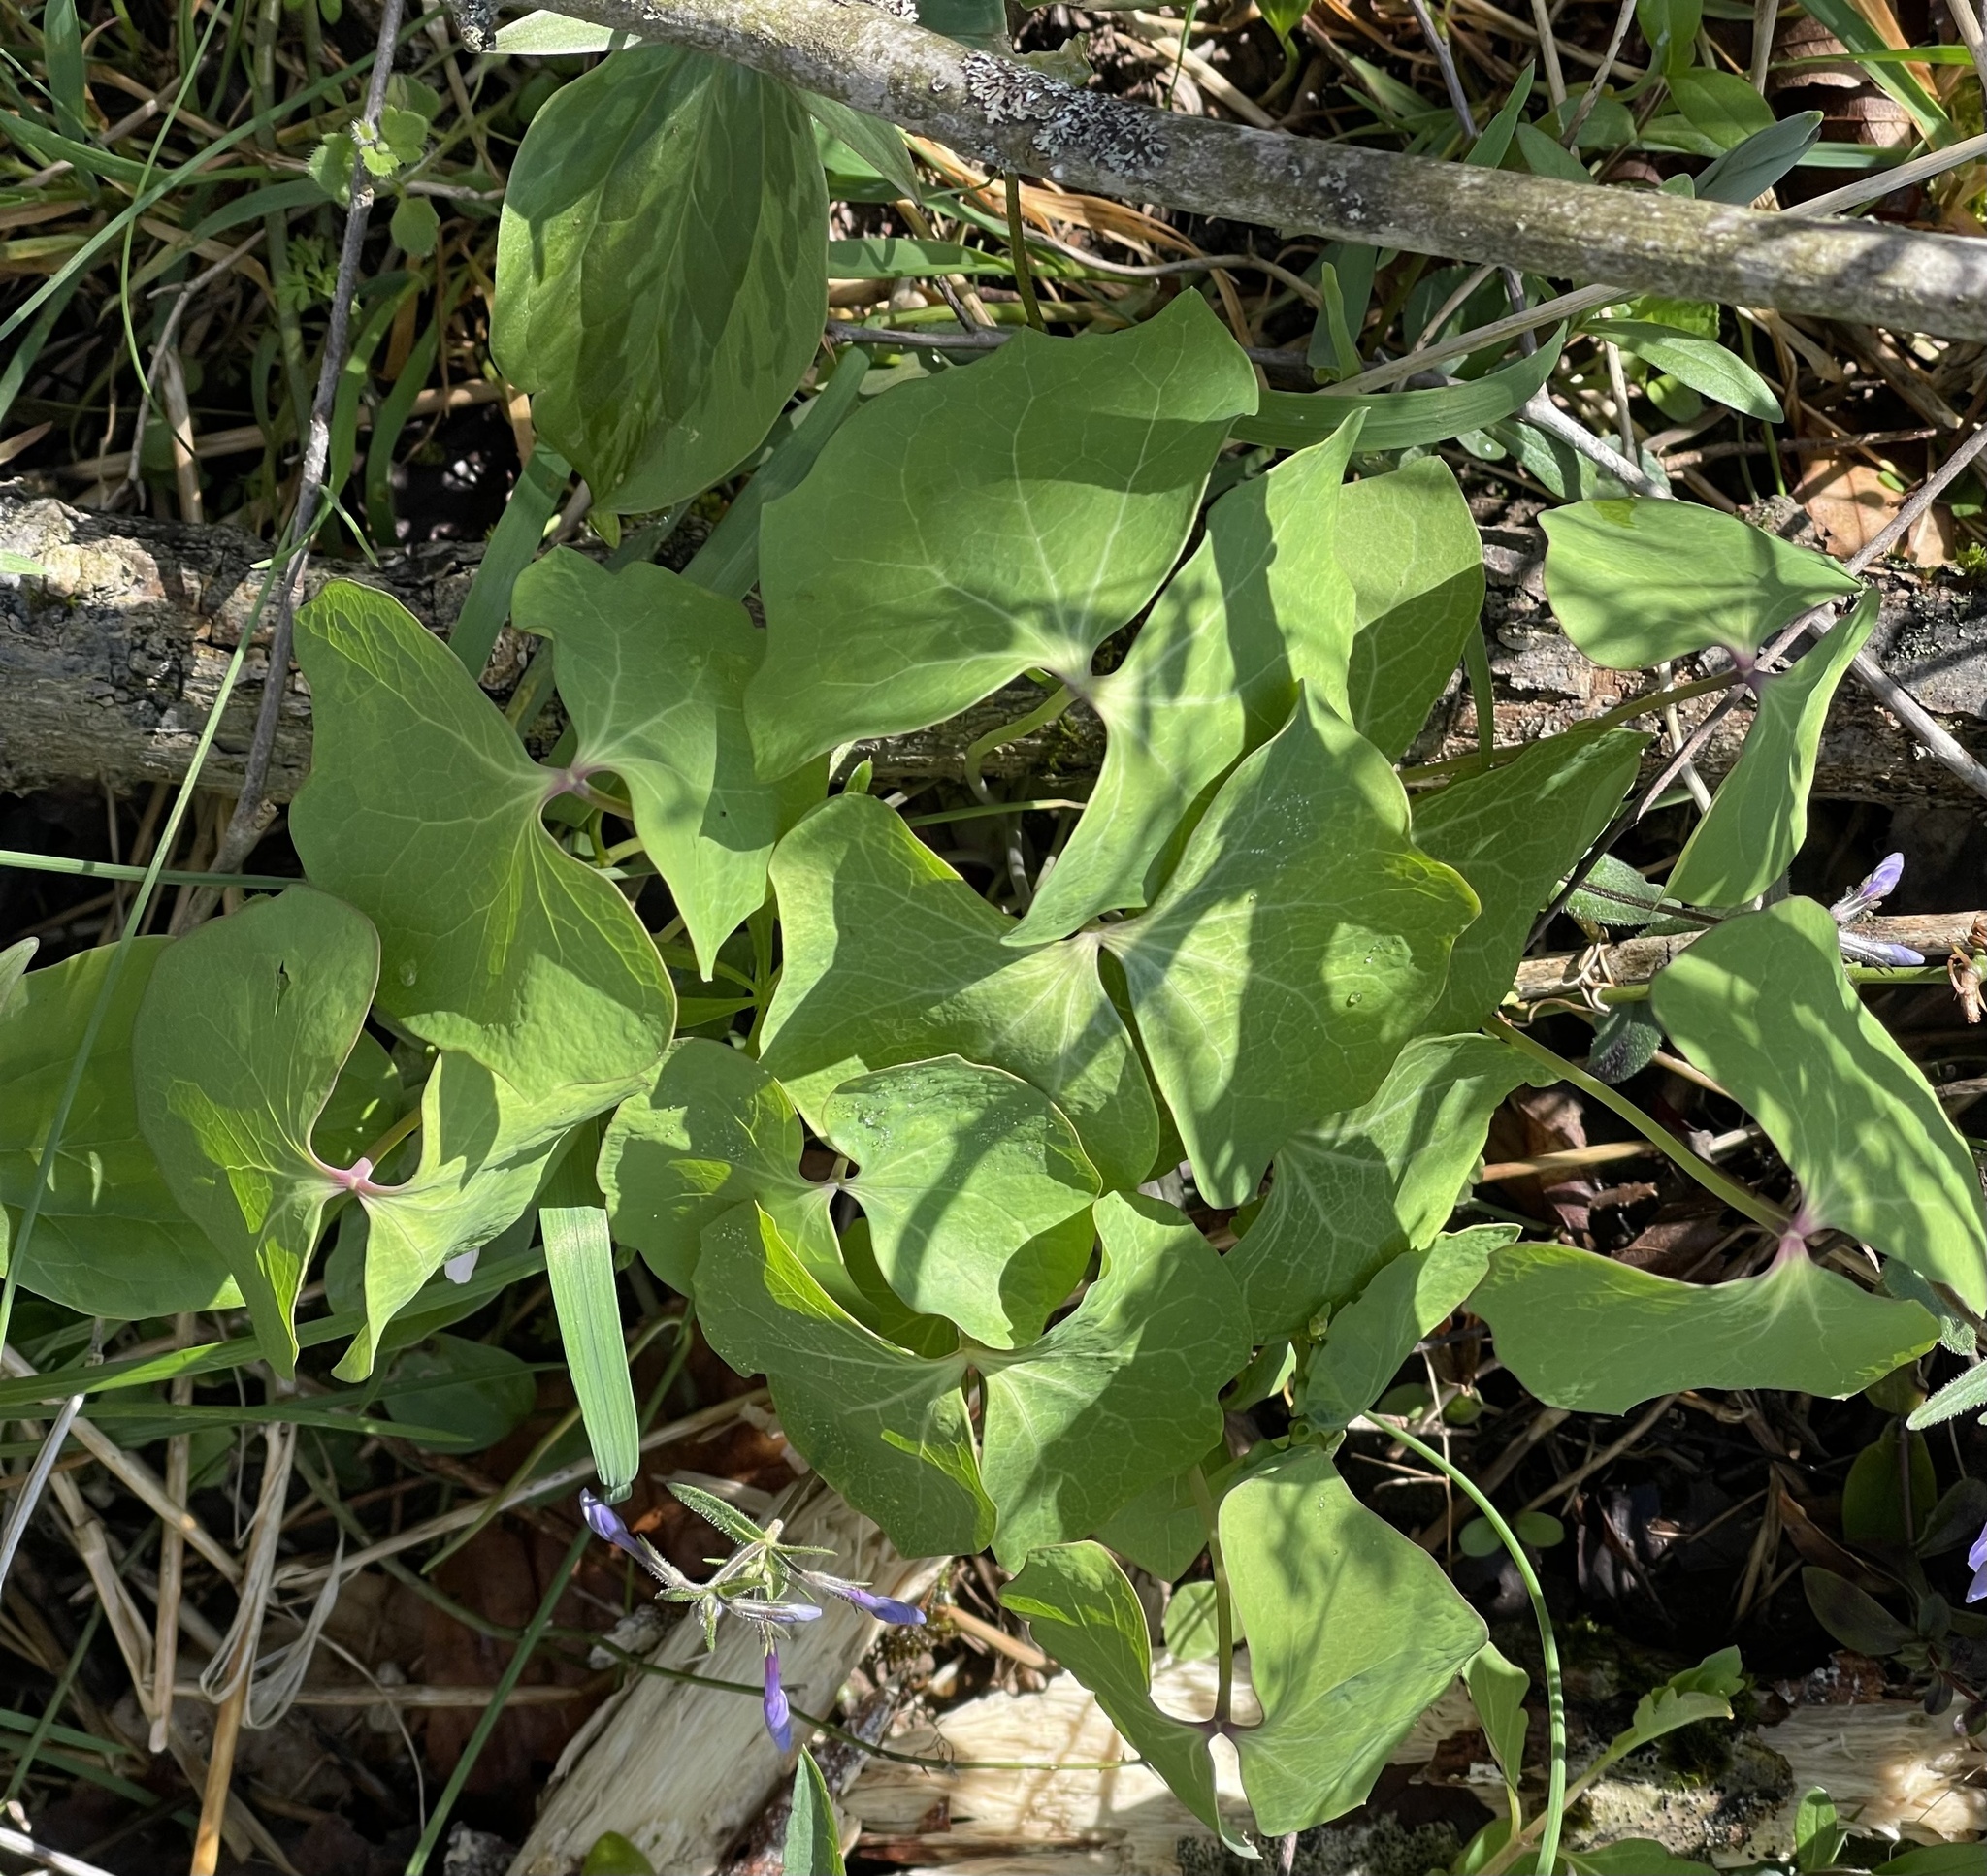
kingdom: Plantae
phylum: Tracheophyta
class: Magnoliopsida
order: Ranunculales
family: Berberidaceae
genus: Jeffersonia
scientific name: Jeffersonia diphylla
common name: Rheumatism-root
